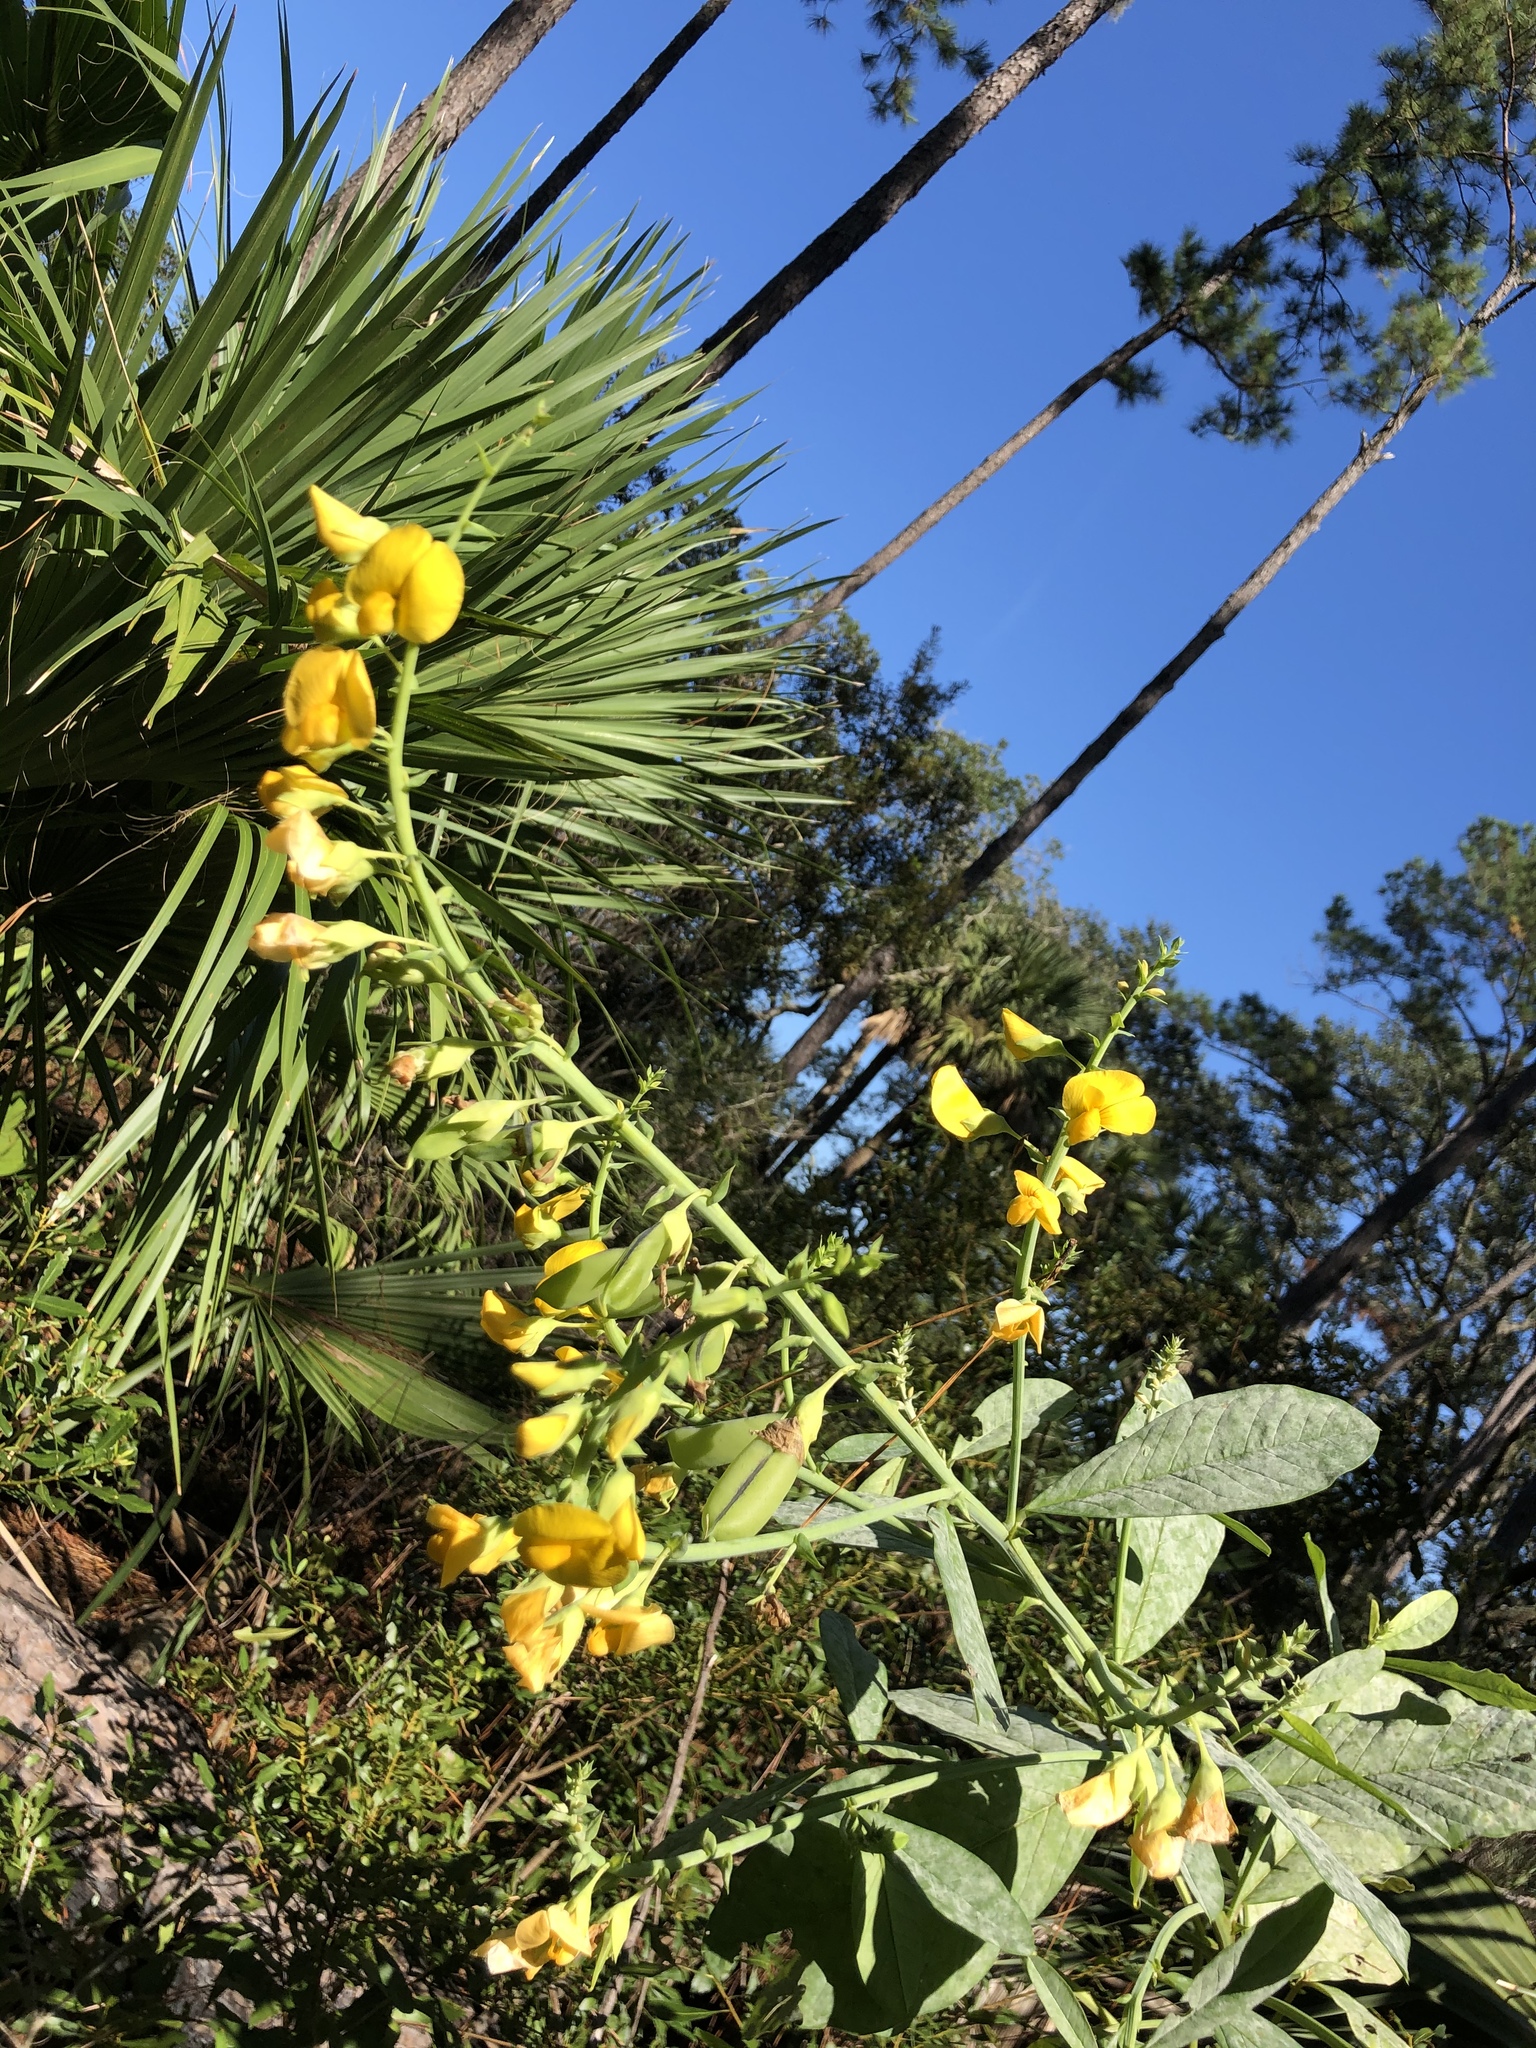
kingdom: Plantae
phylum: Tracheophyta
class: Magnoliopsida
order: Fabales
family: Fabaceae
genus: Crotalaria
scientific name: Crotalaria spectabilis
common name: Showy rattlebox
